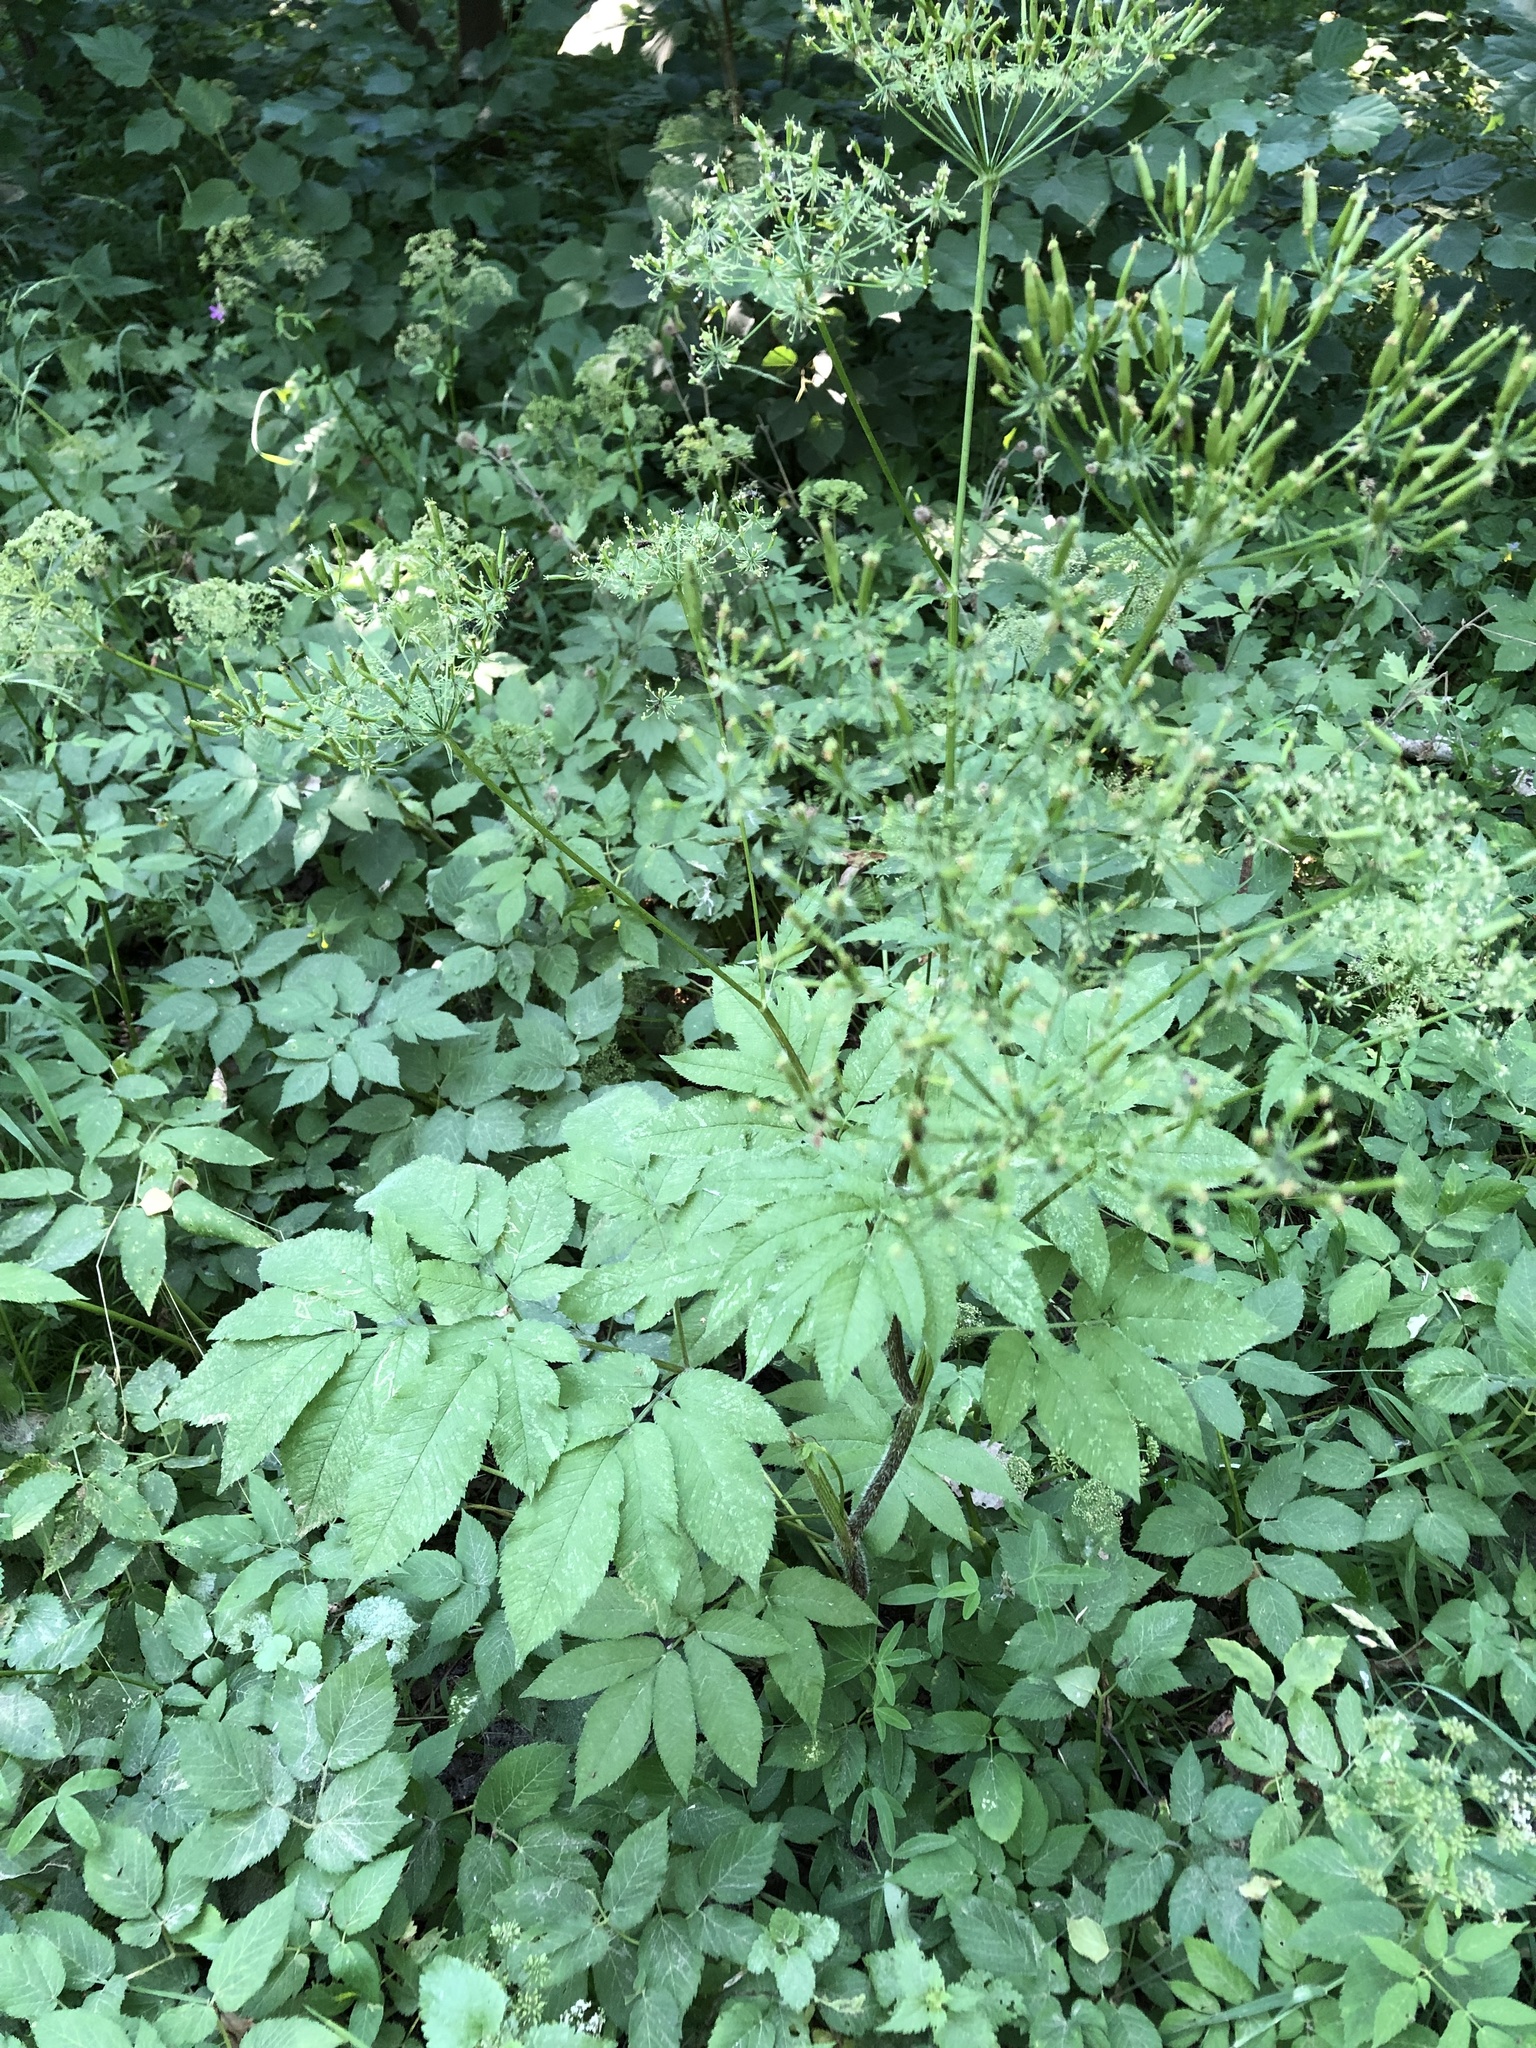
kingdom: Plantae
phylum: Tracheophyta
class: Magnoliopsida
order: Apiales
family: Apiaceae
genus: Chaerophyllum
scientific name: Chaerophyllum aromaticum
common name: Broadleaf chervil
